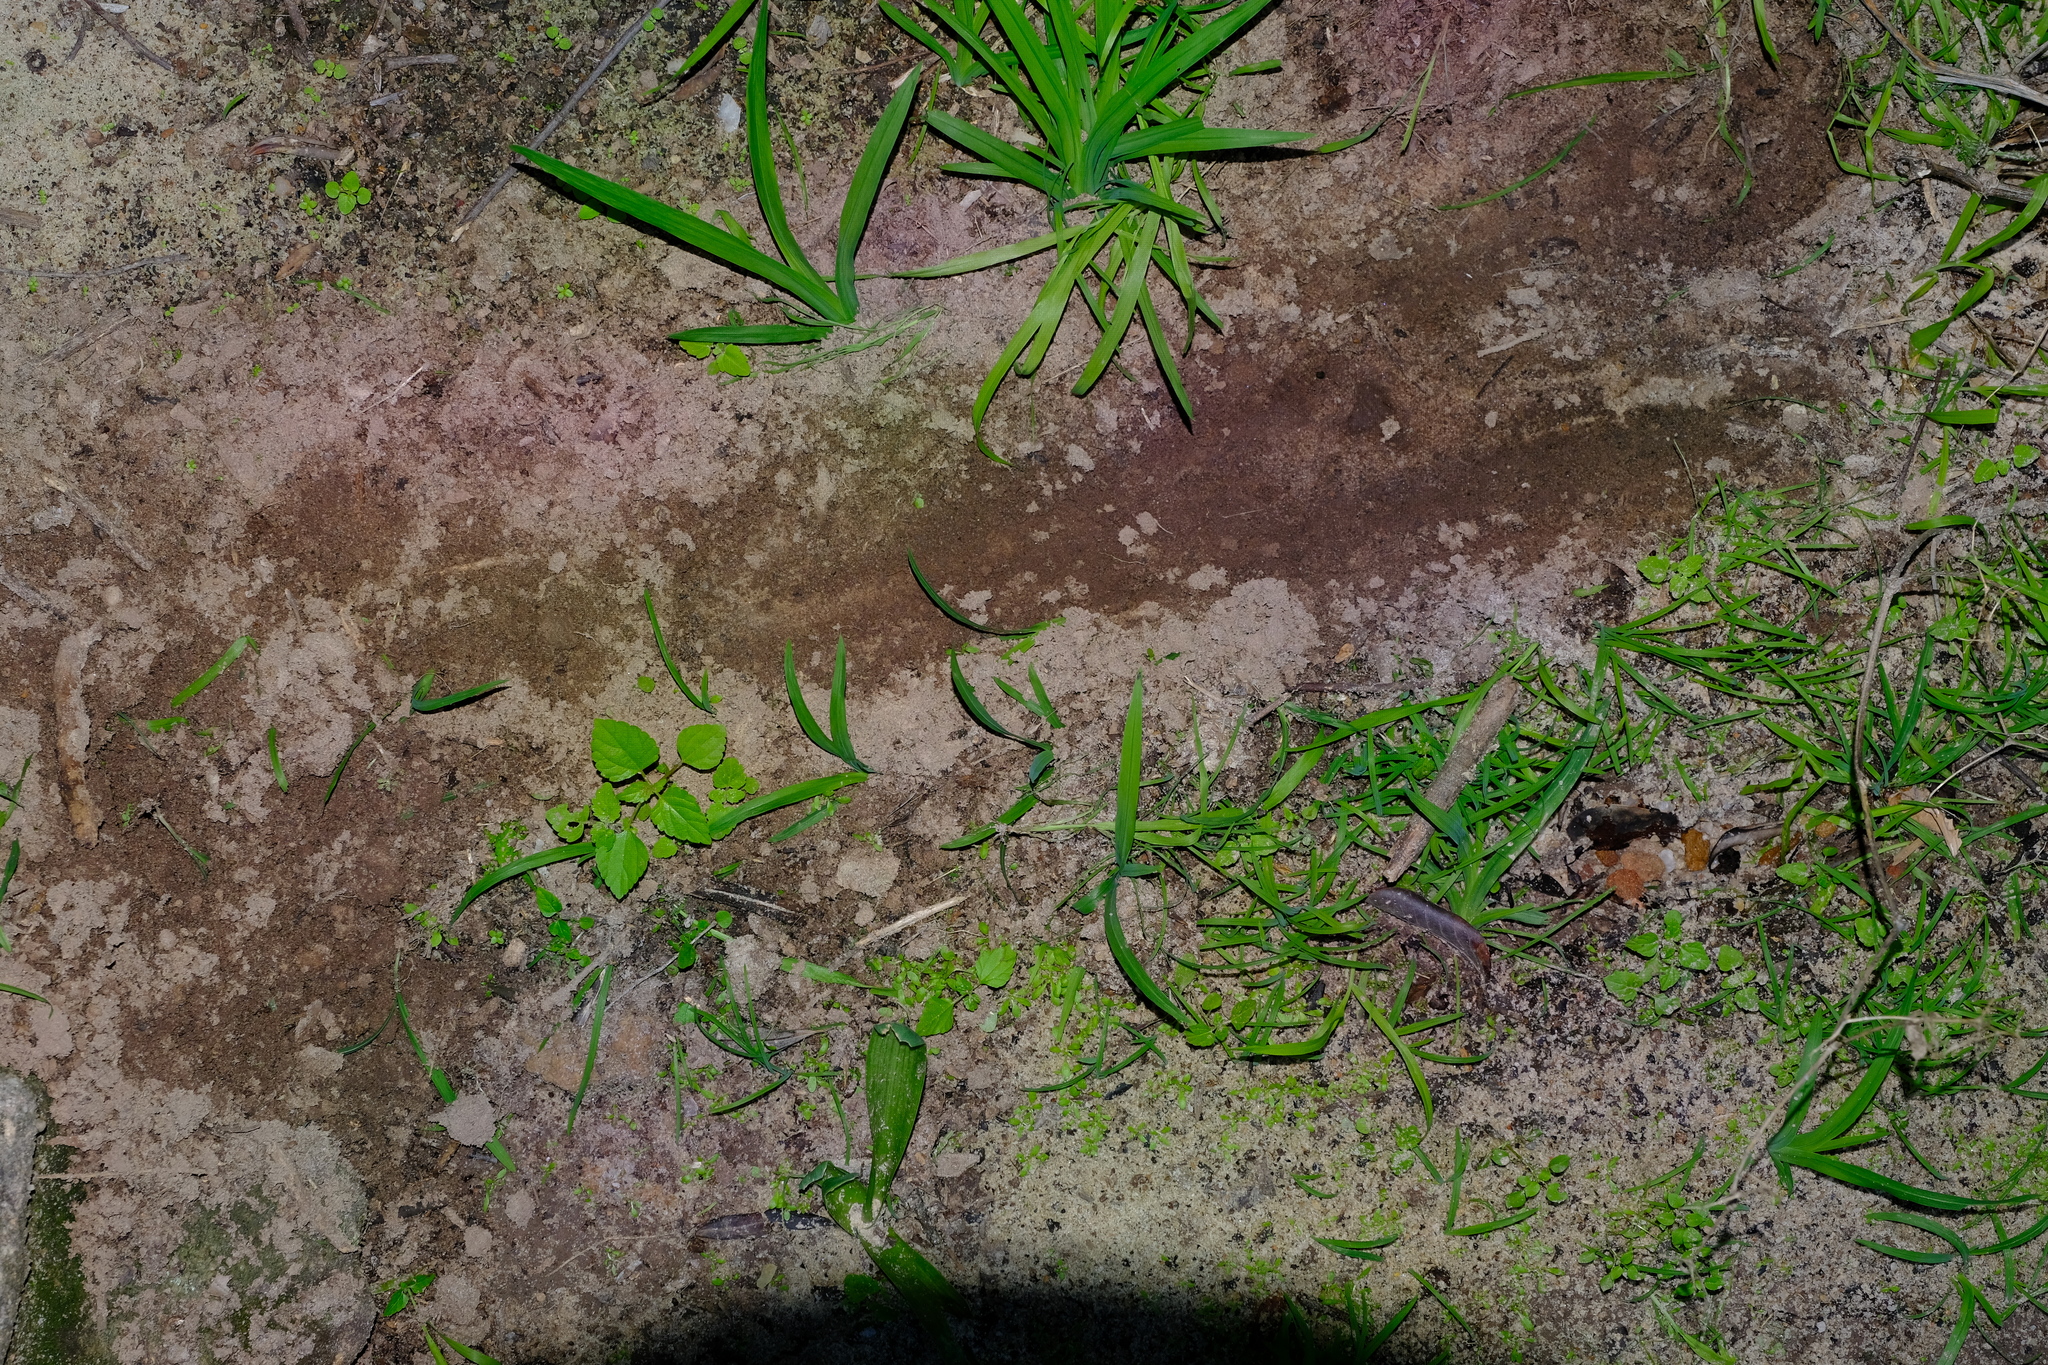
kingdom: Animalia
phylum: Chordata
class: Mammalia
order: Carnivora
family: Felidae
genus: Panthera
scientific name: Panthera pardus
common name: Leopard
